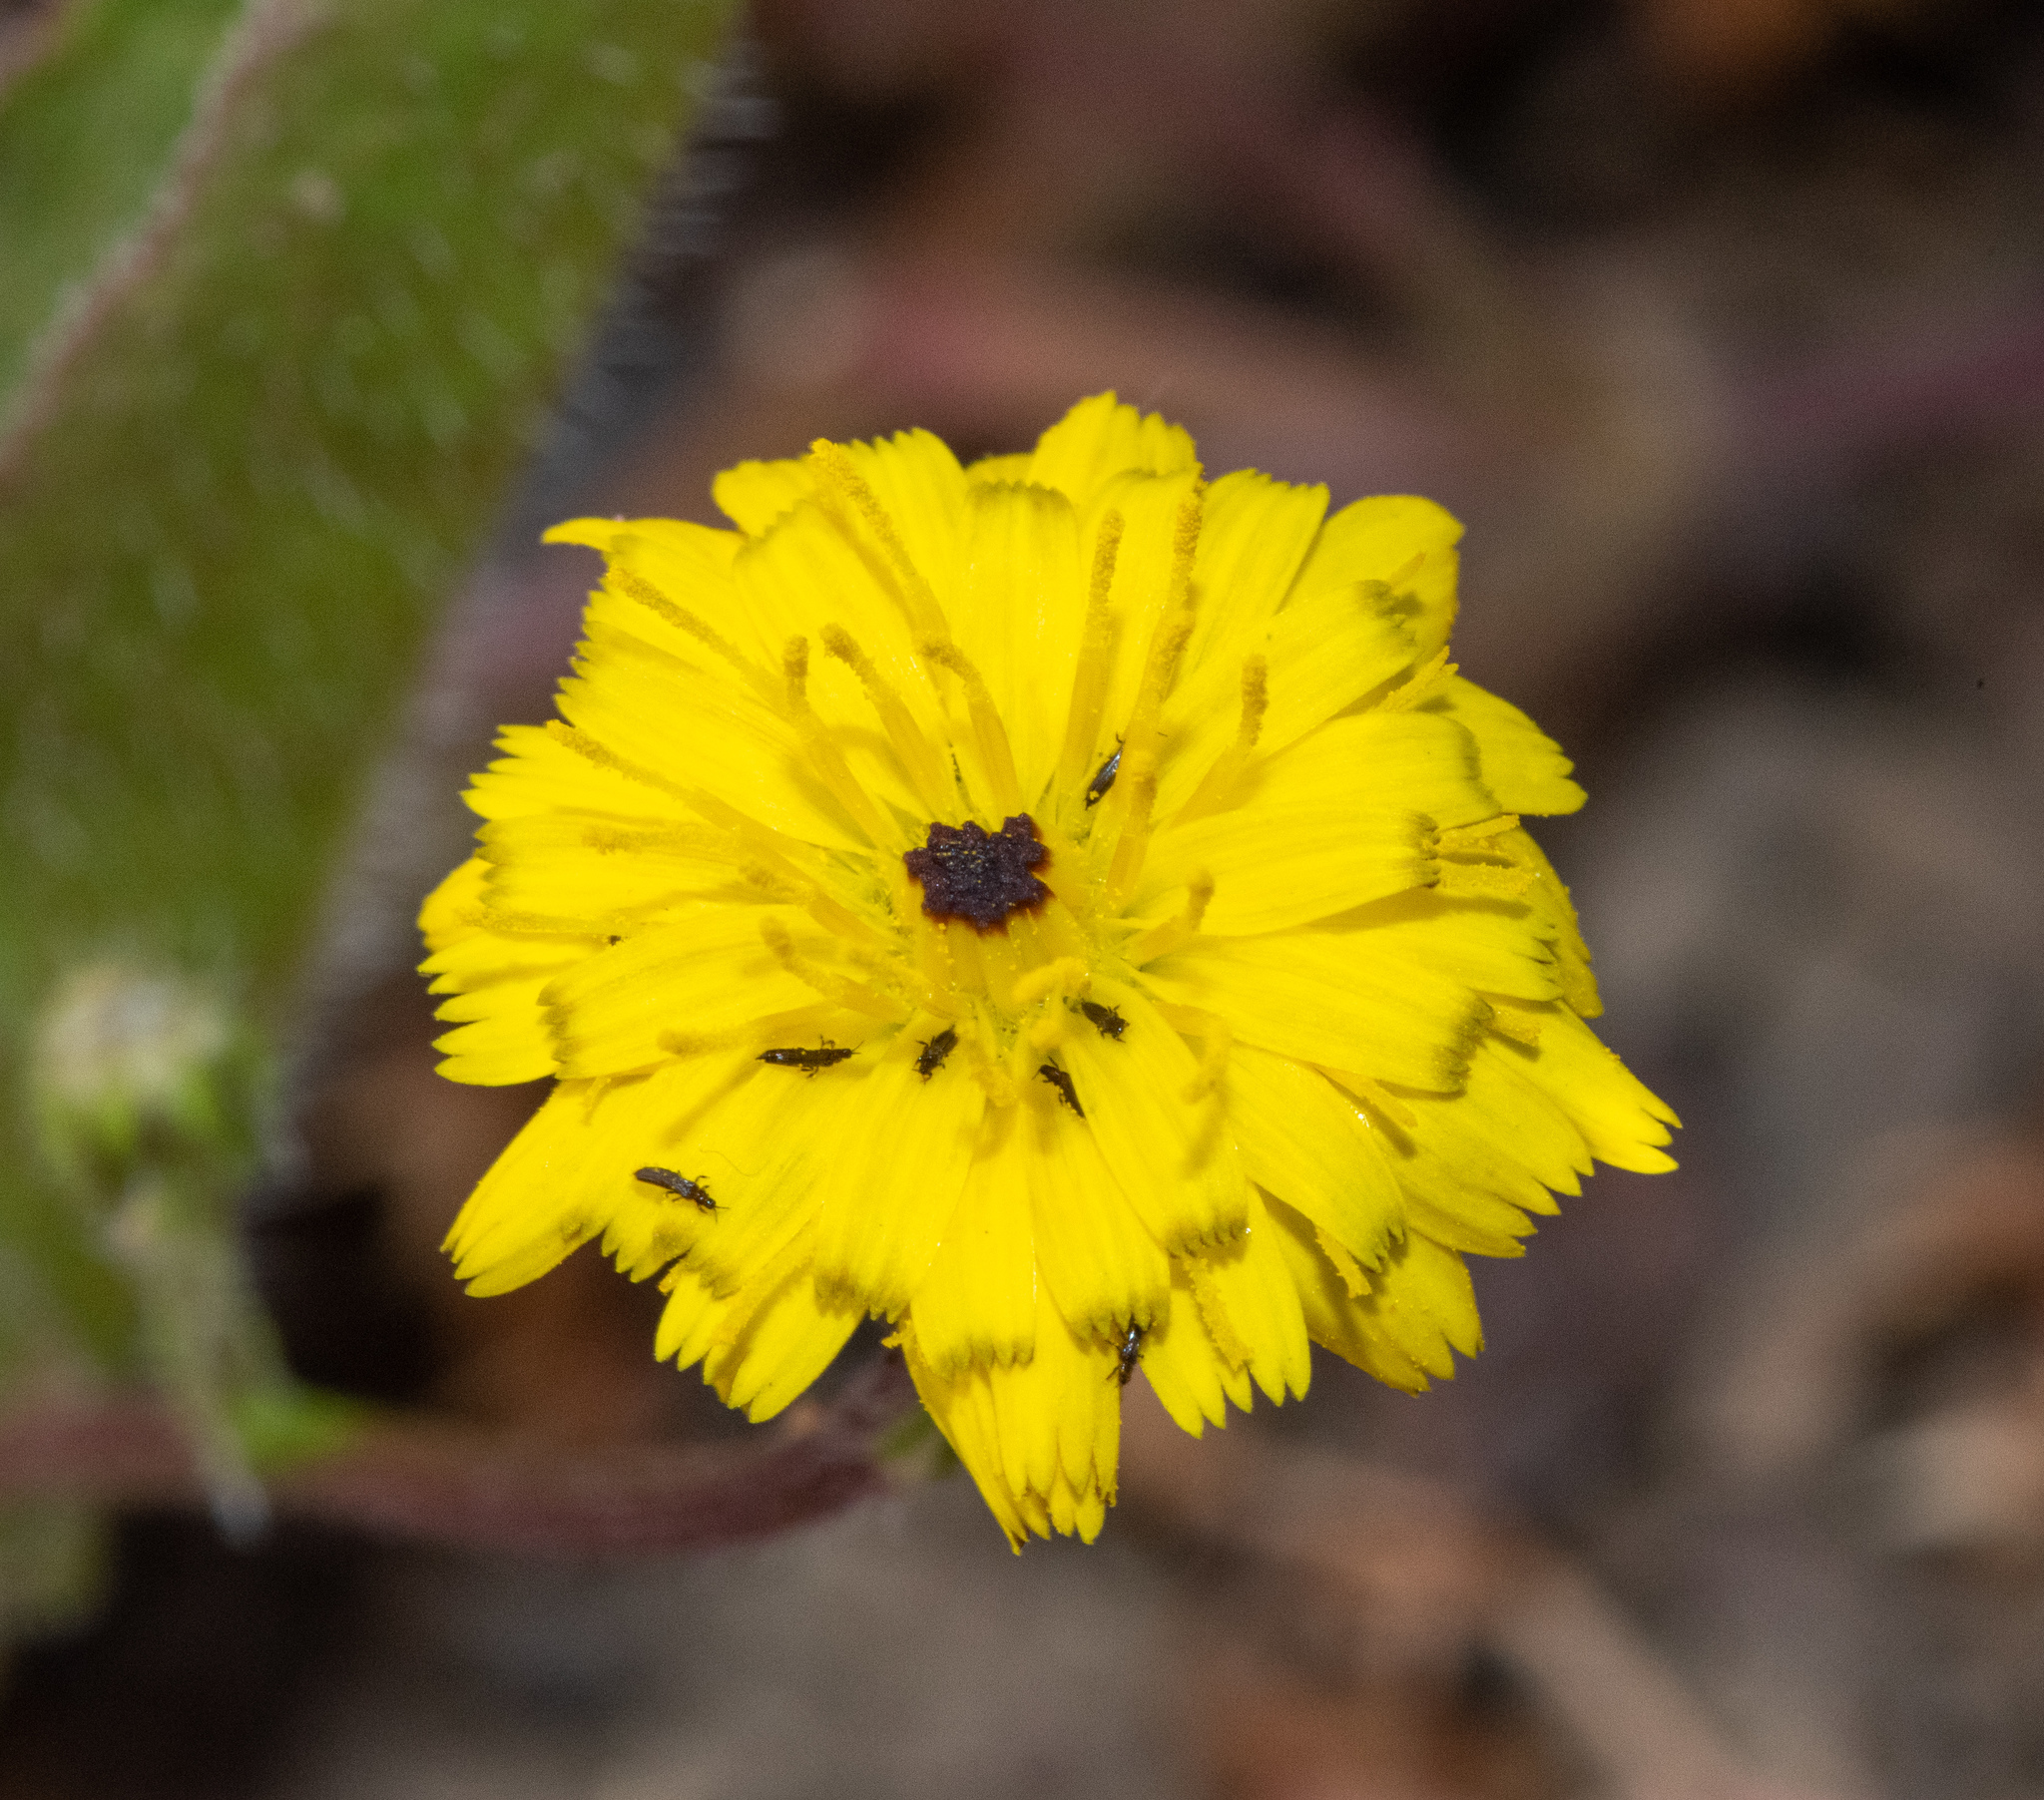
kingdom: Plantae
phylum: Tracheophyta
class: Magnoliopsida
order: Asterales
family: Asteraceae
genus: Hedypnois
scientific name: Hedypnois rhagadioloides
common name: Cretan weed
